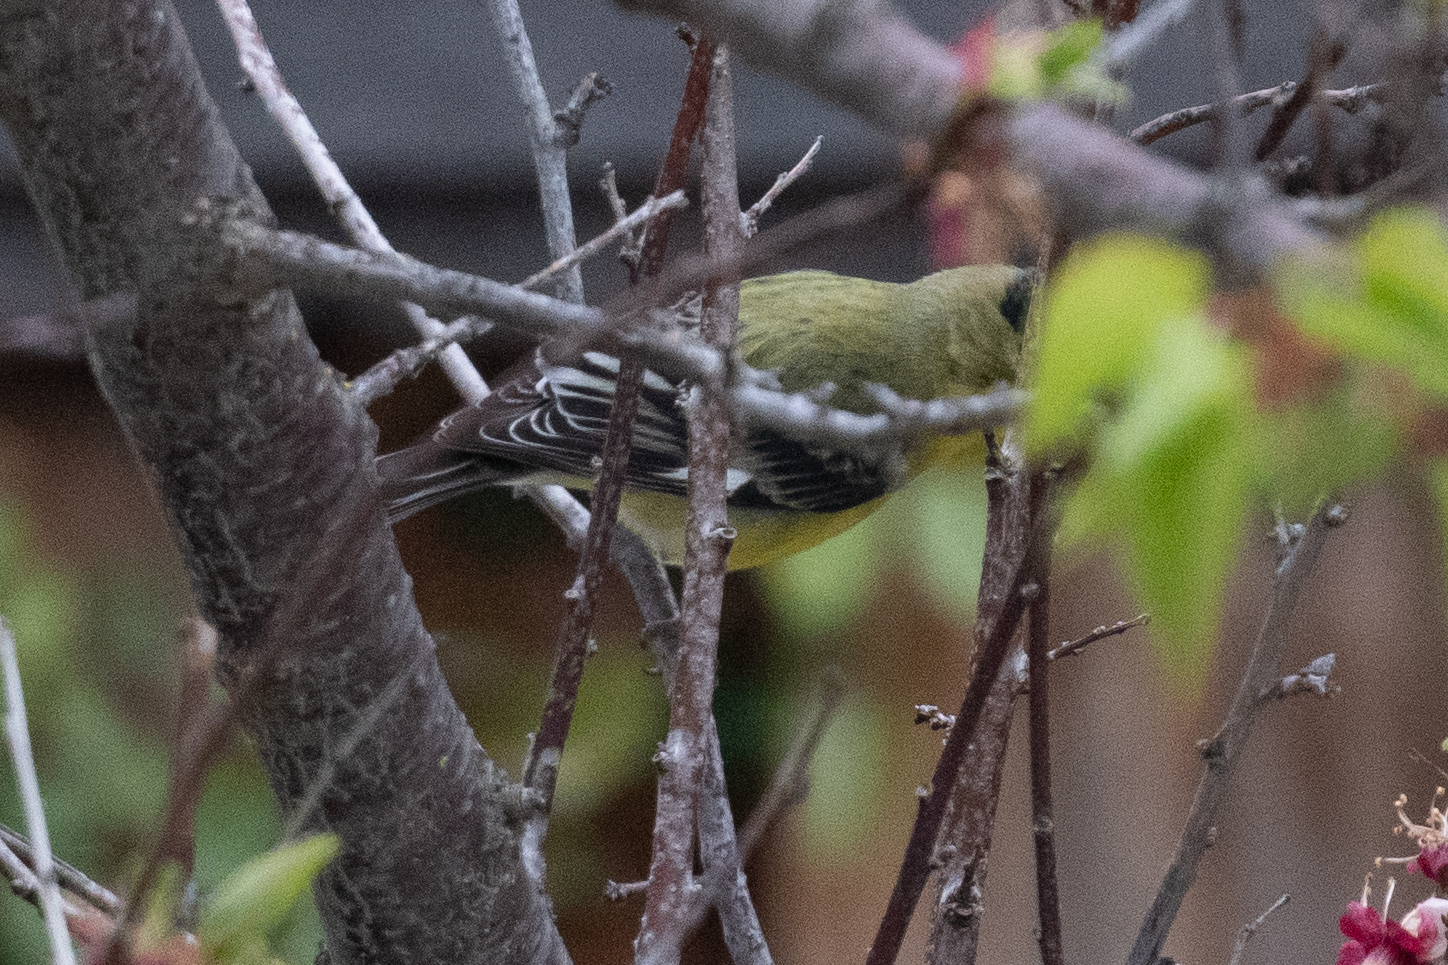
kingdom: Animalia
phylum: Chordata
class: Aves
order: Passeriformes
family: Fringillidae
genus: Spinus
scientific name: Spinus psaltria
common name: Lesser goldfinch
